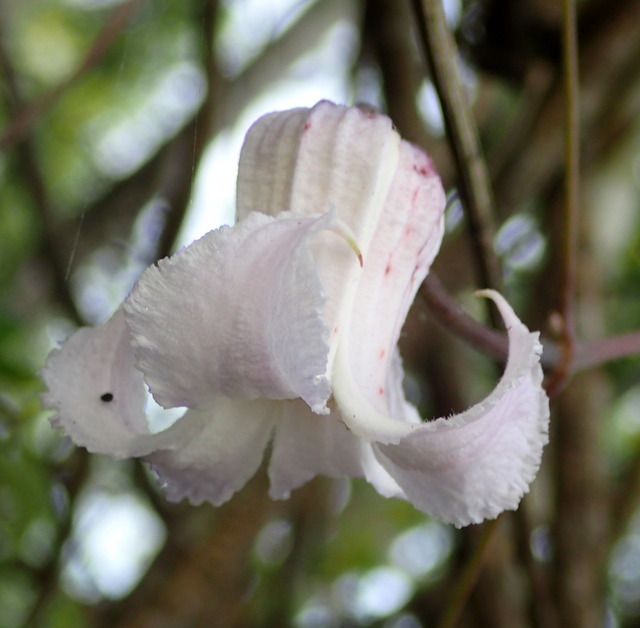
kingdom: Plantae
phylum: Tracheophyta
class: Magnoliopsida
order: Ranunculales
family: Ranunculaceae
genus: Clematis
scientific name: Clematis crispa
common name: Curly clematis
